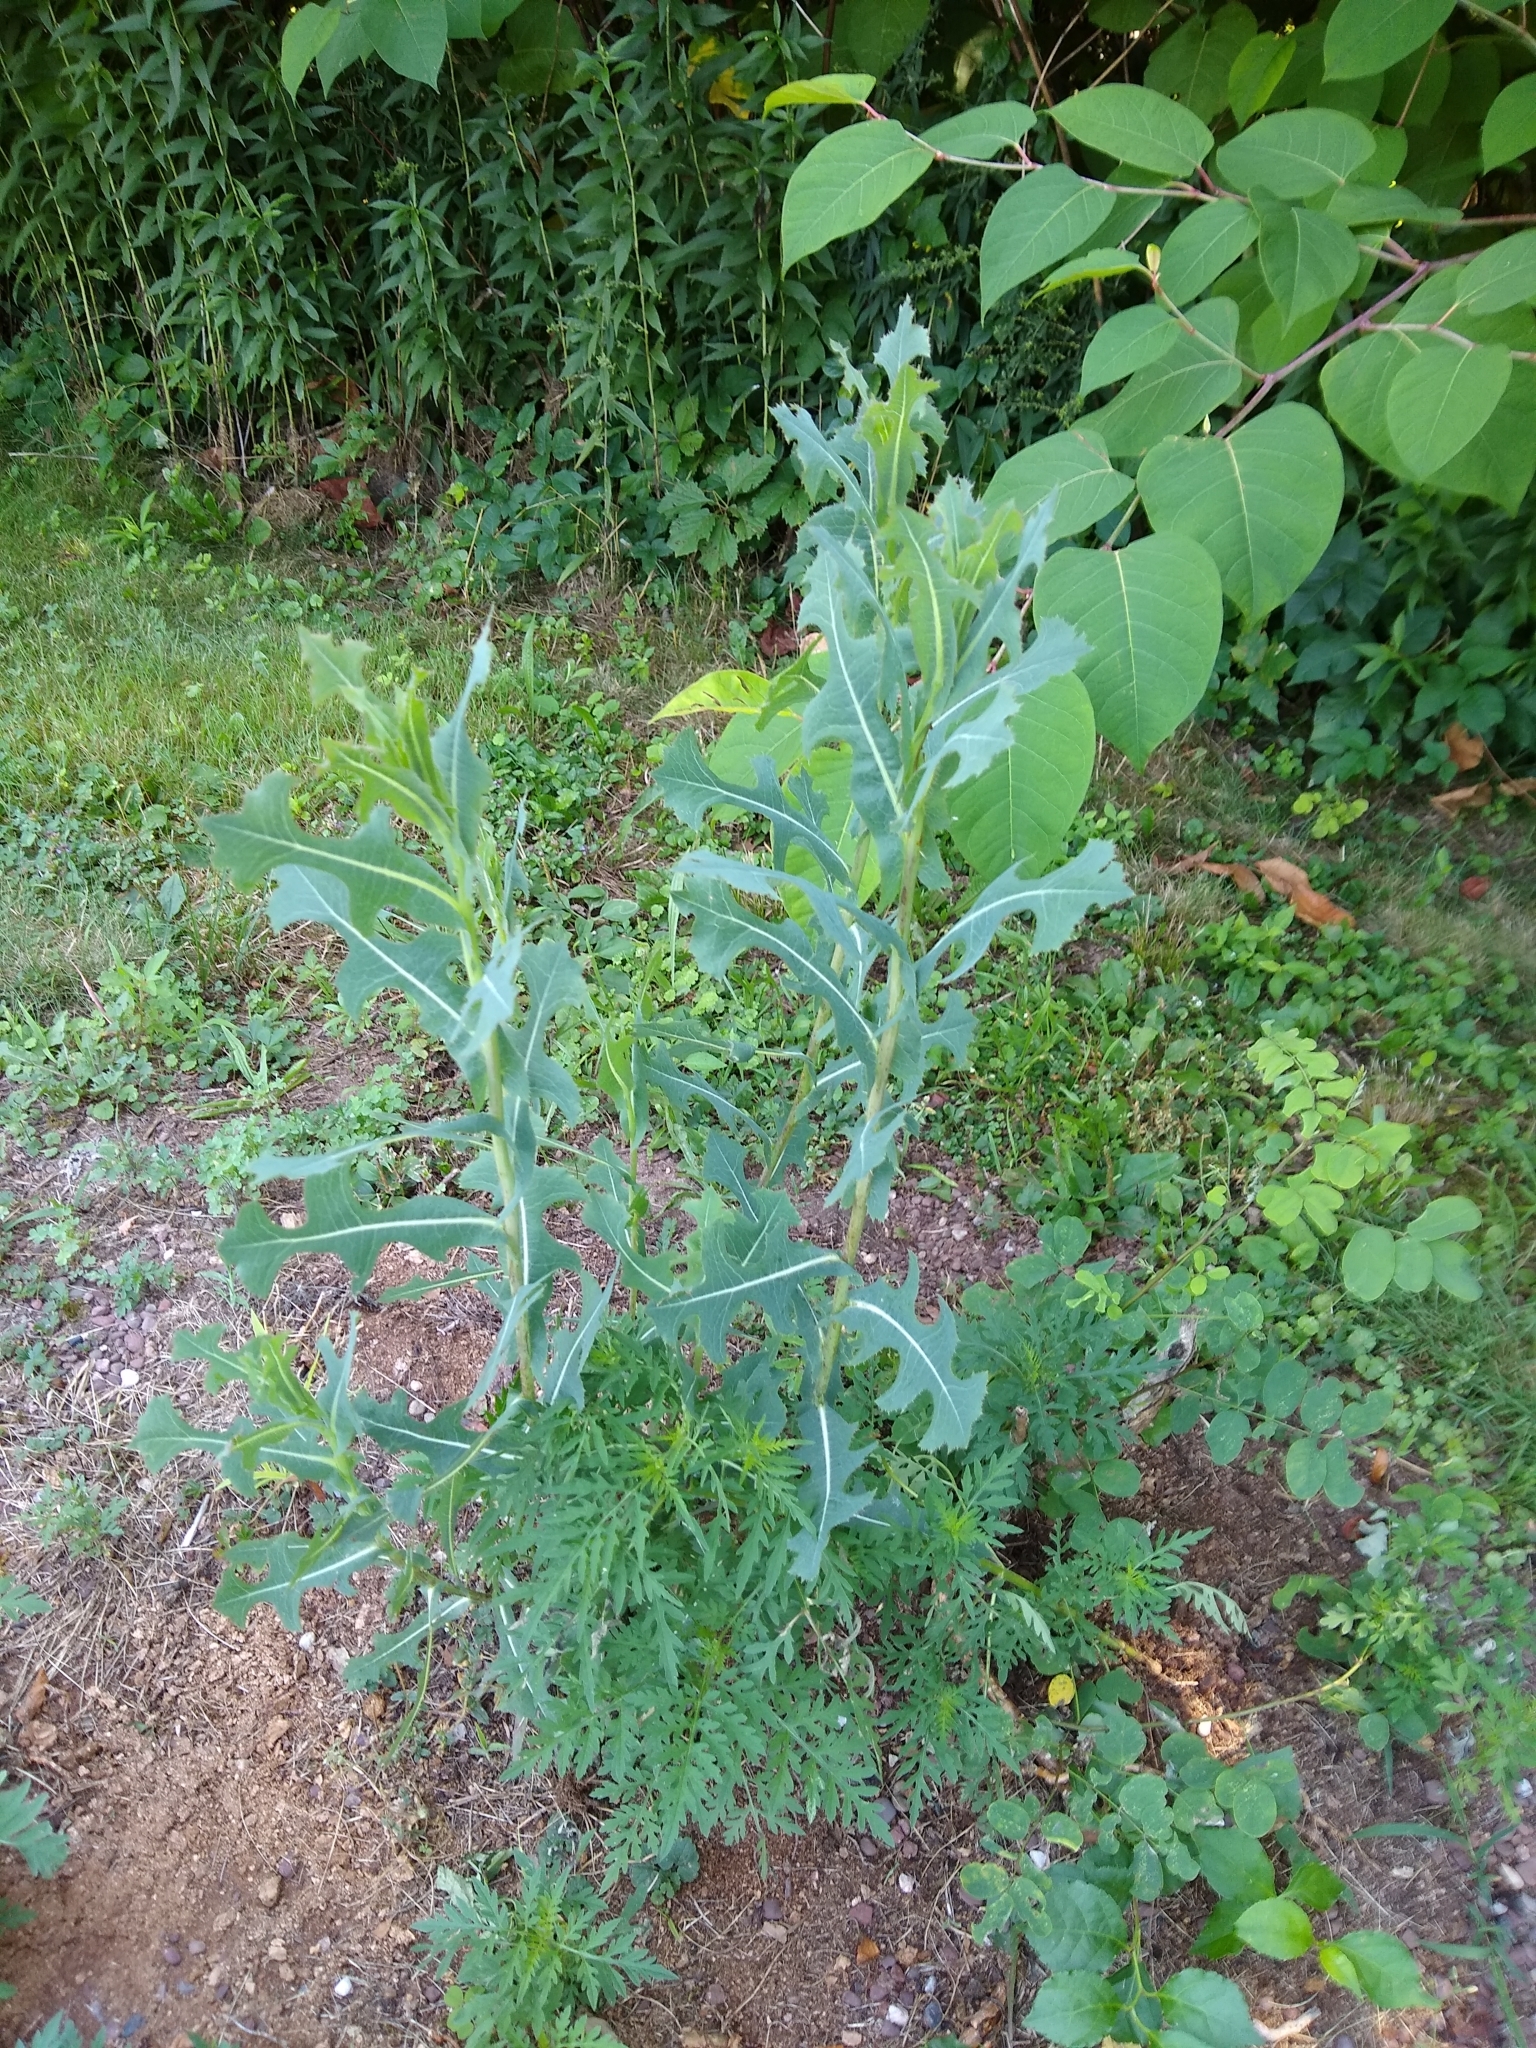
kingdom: Plantae
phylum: Tracheophyta
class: Magnoliopsida
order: Asterales
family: Asteraceae
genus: Lactuca
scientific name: Lactuca serriola
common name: Prickly lettuce
